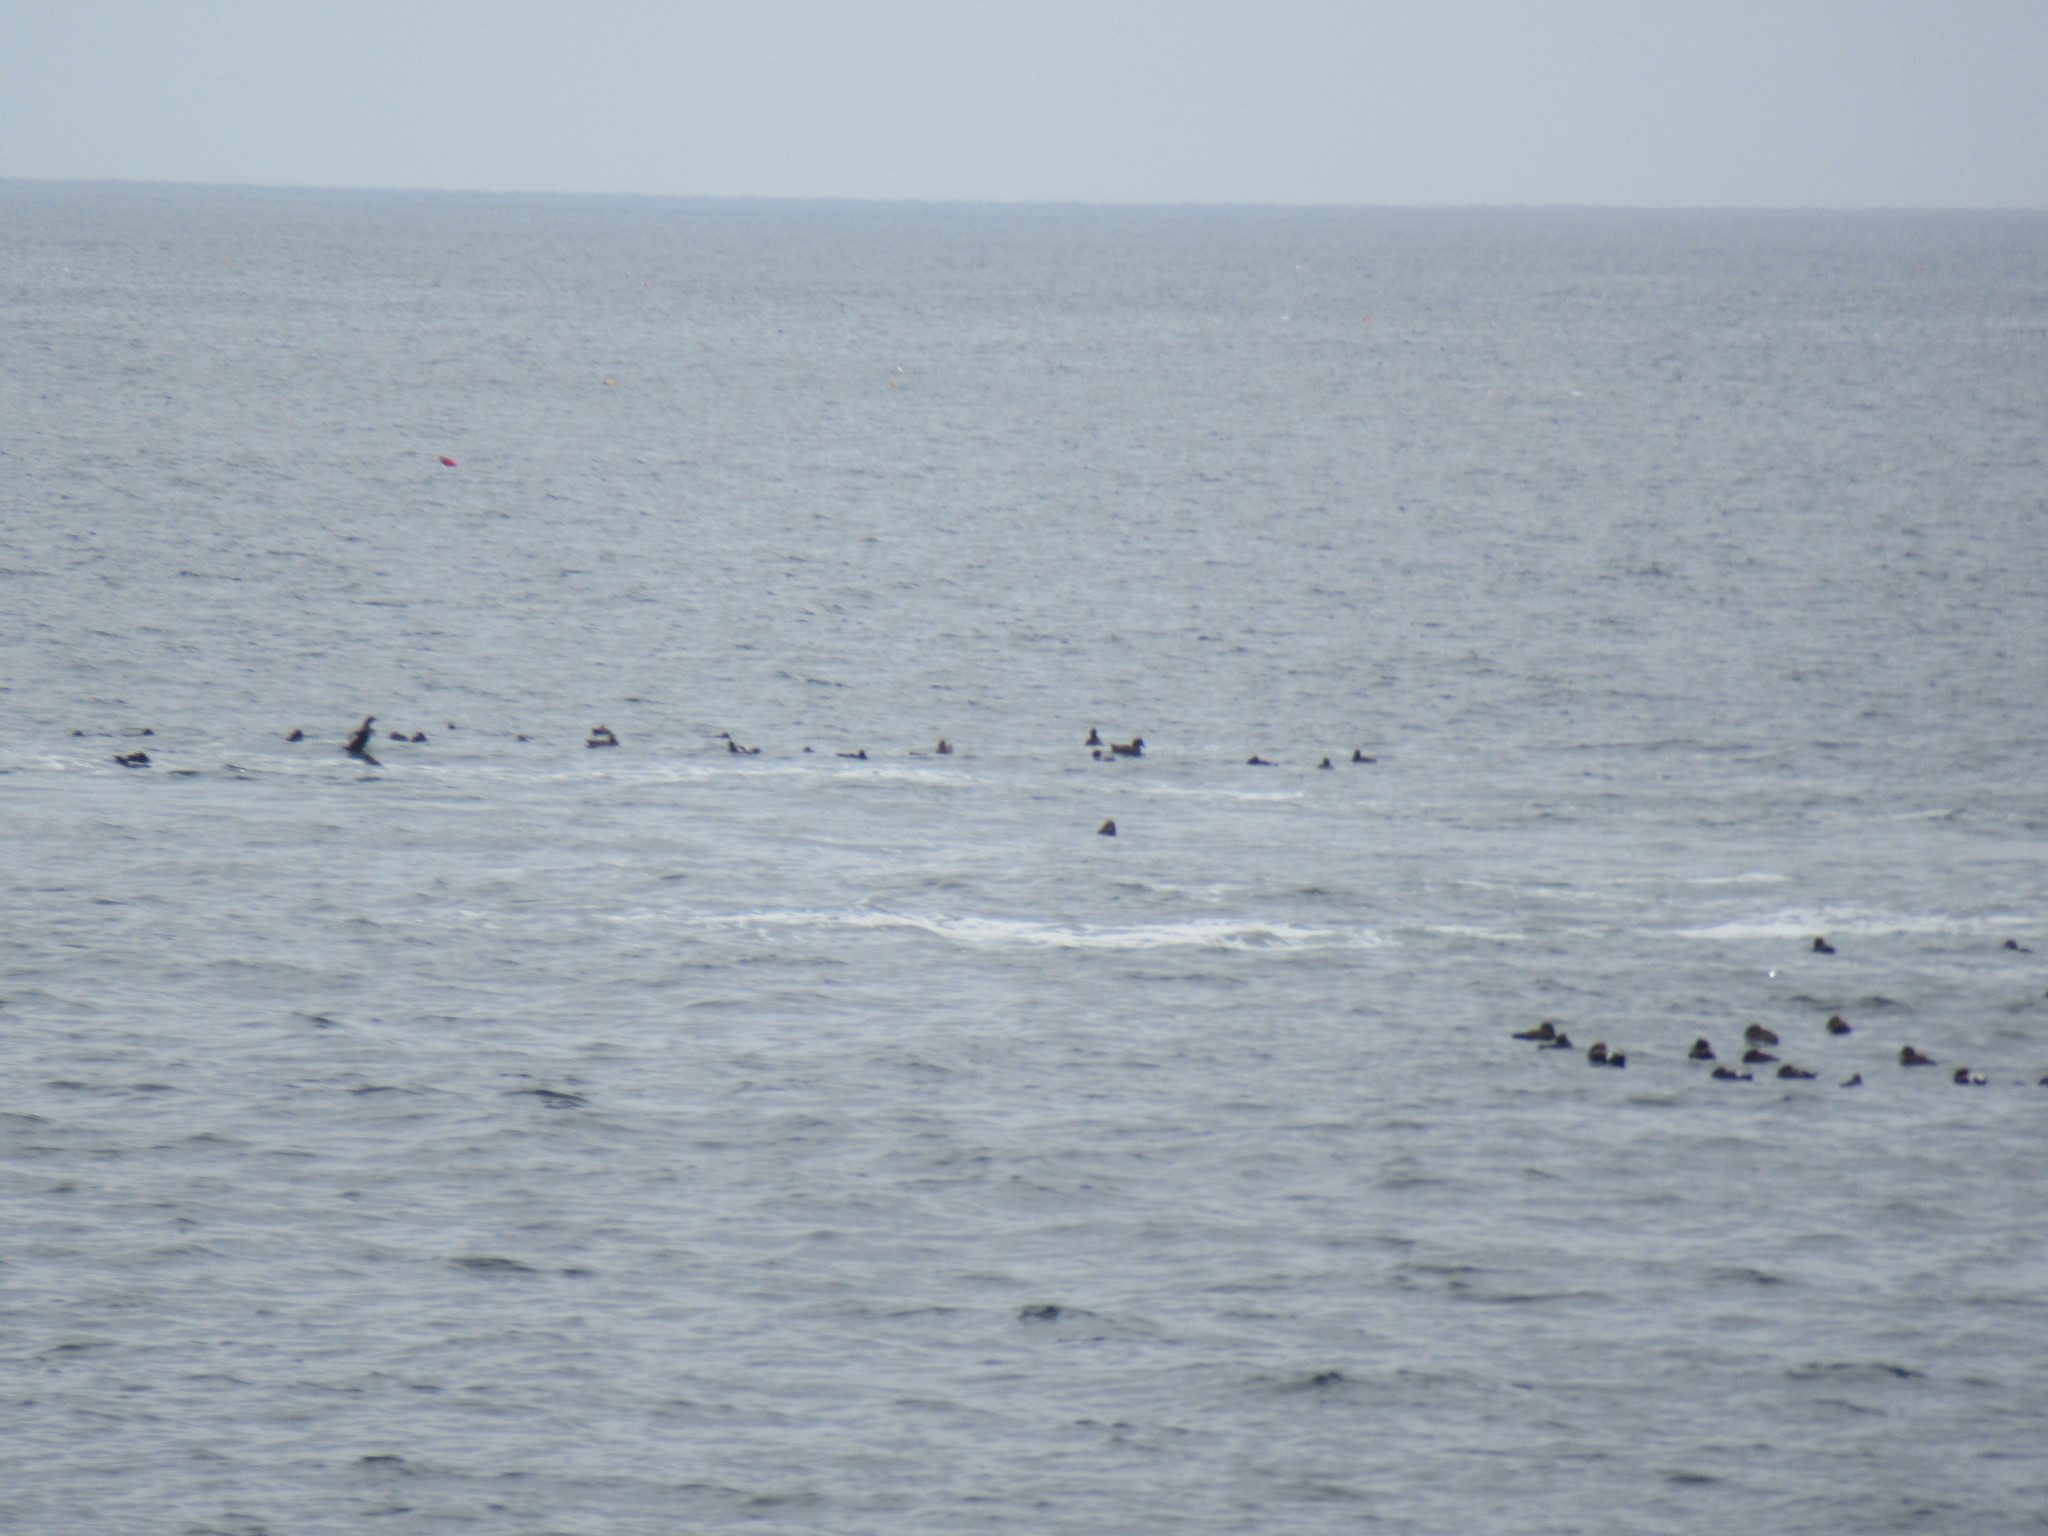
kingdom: Animalia
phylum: Chordata
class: Aves
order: Anseriformes
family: Anatidae
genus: Somateria
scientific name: Somateria mollissima
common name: Common eider
